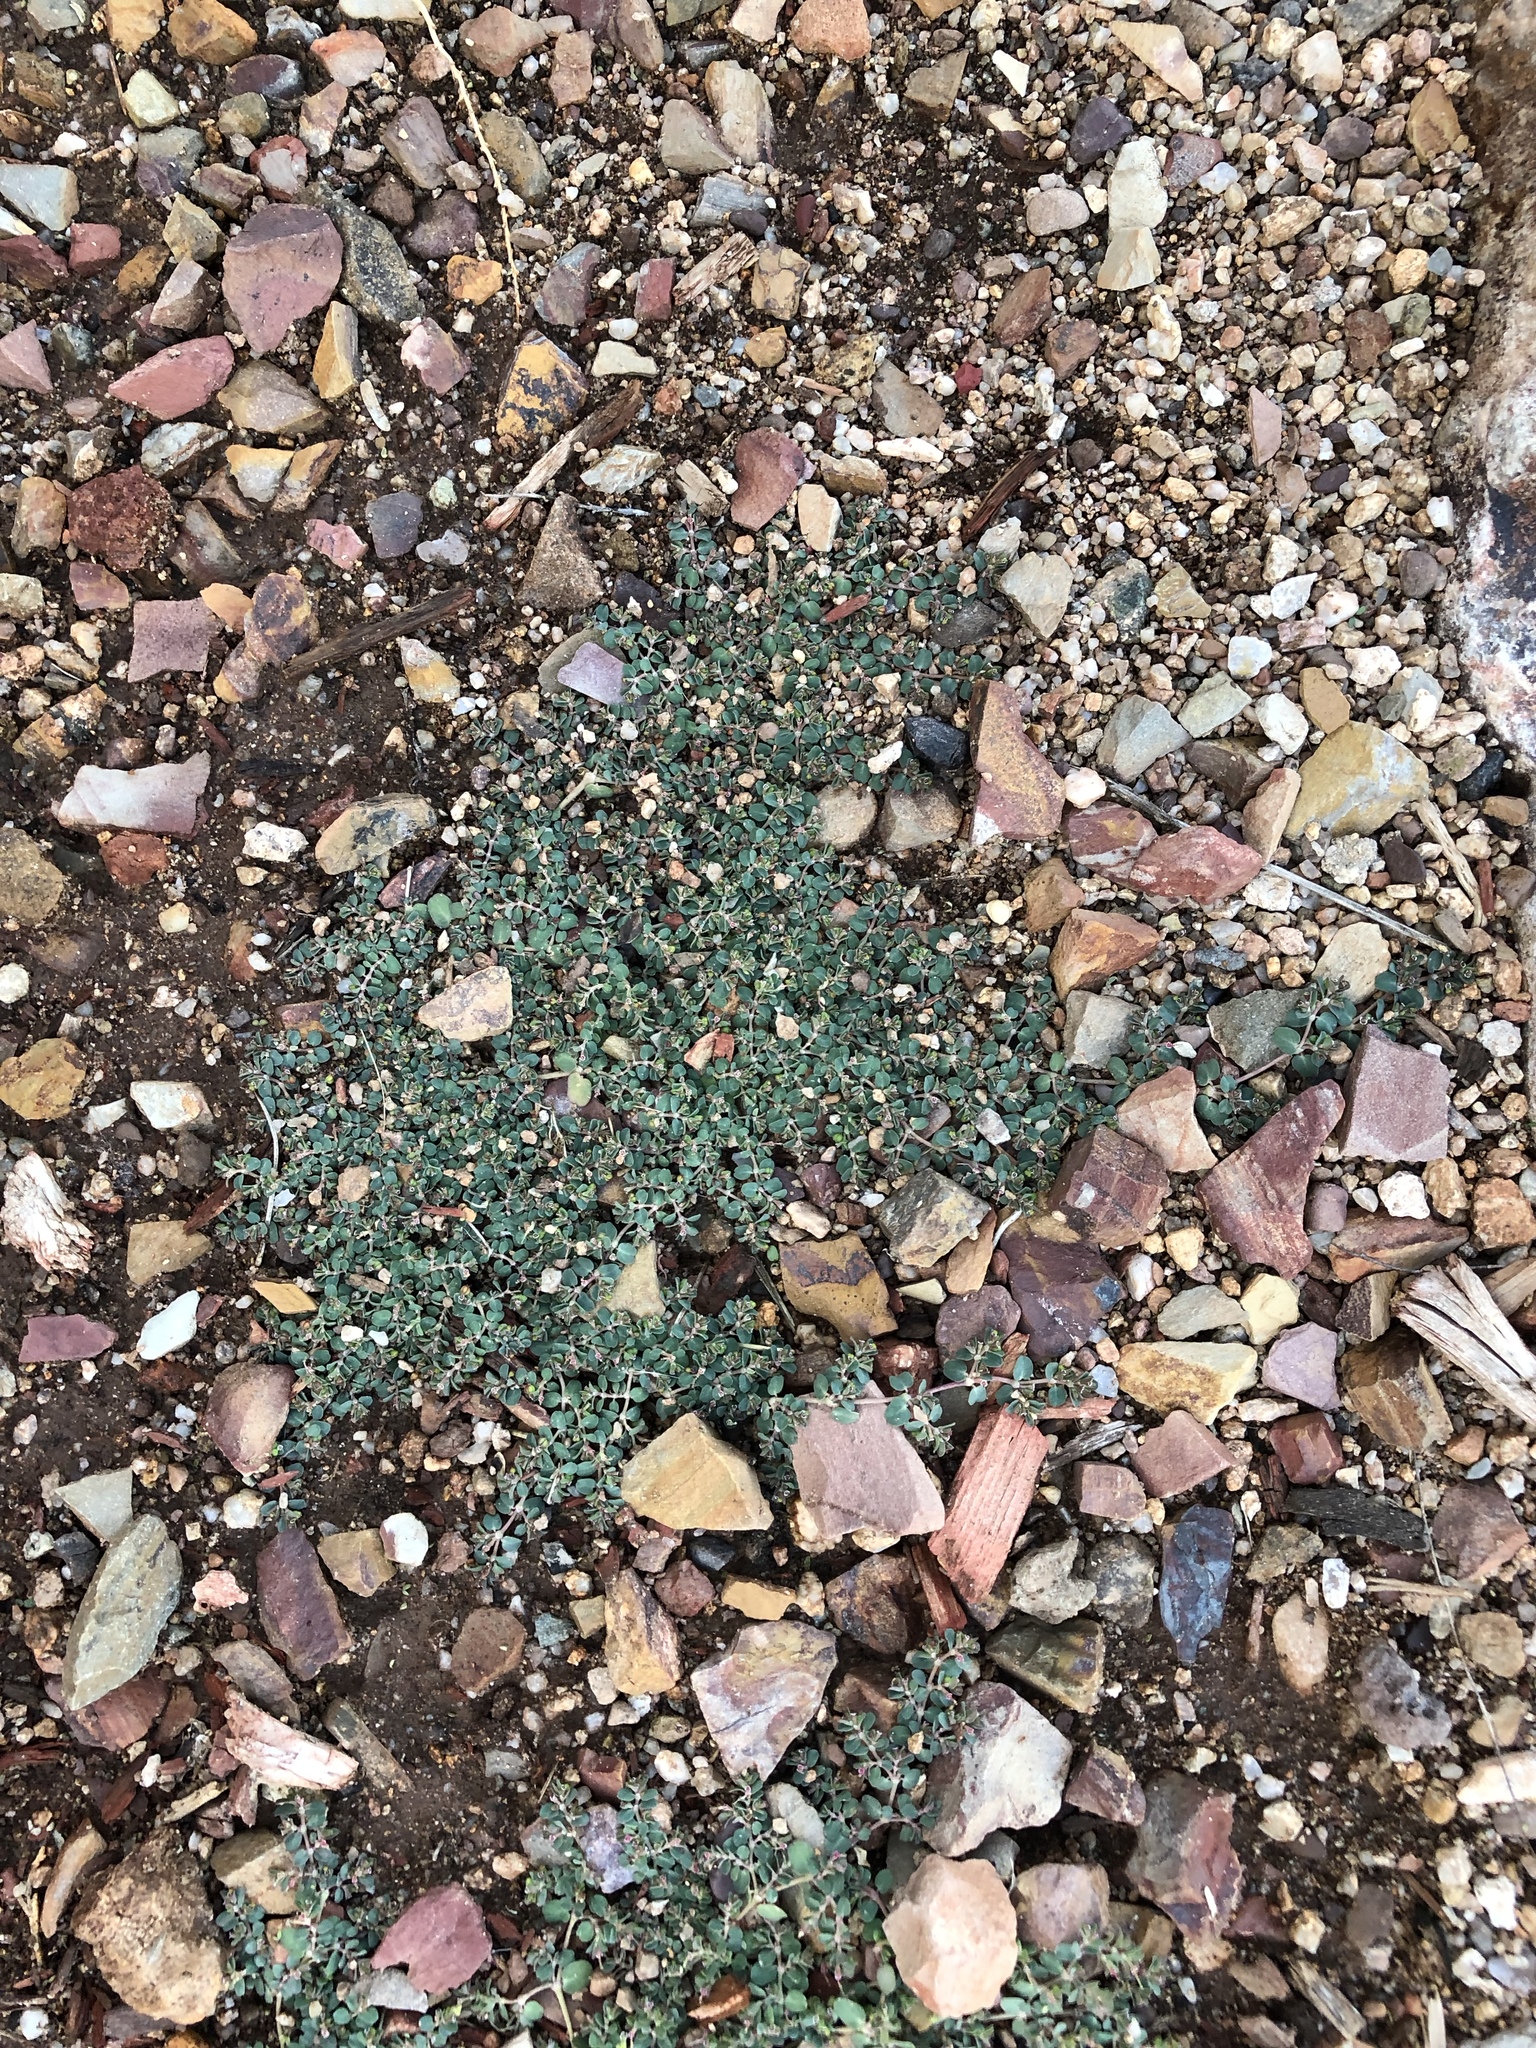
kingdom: Plantae
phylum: Tracheophyta
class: Magnoliopsida
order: Malpighiales
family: Euphorbiaceae
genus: Euphorbia
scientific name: Euphorbia serpens
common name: Matted sandmat
